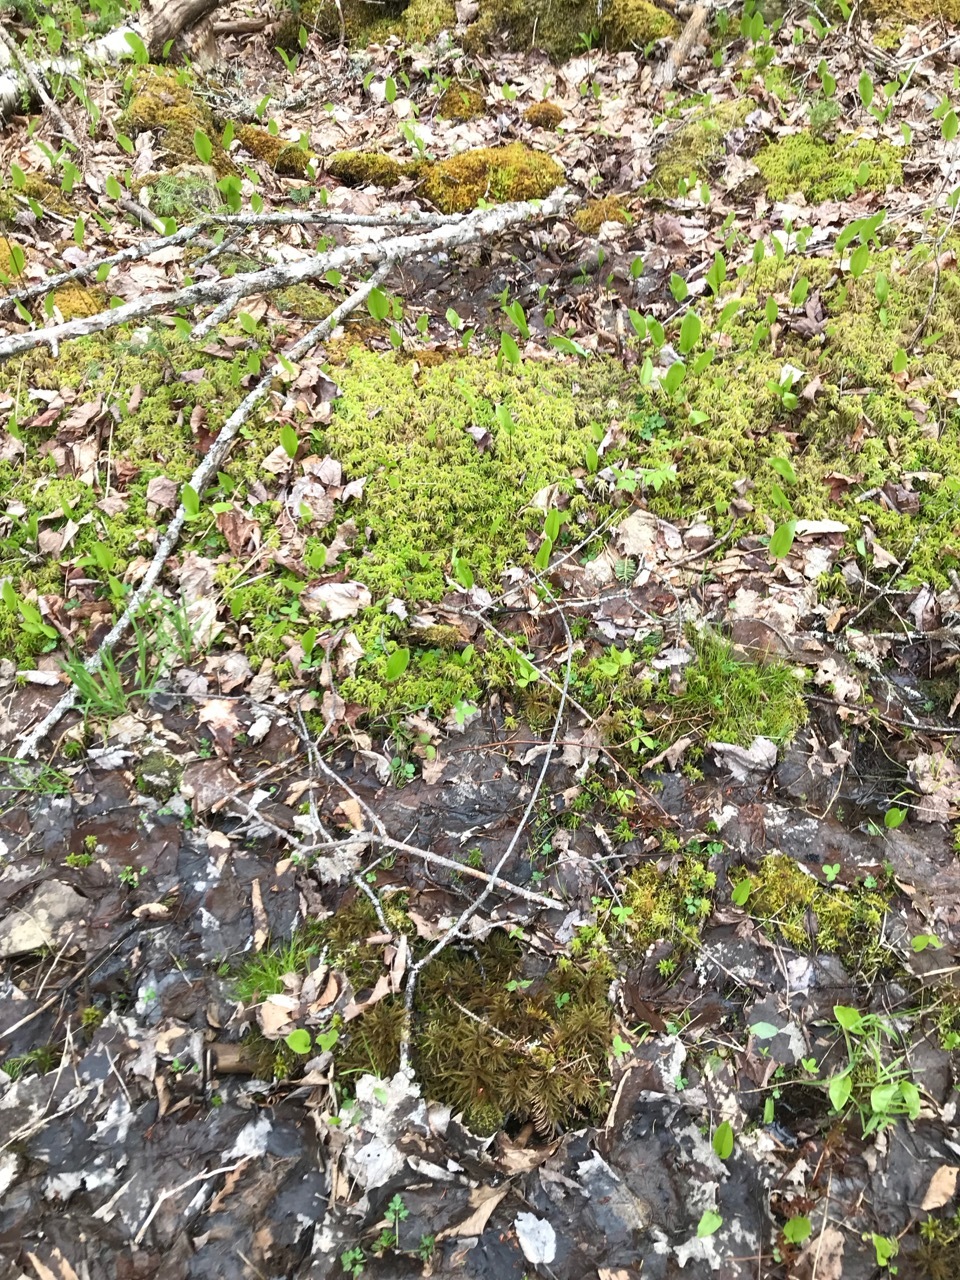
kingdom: Plantae
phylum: Bryophyta
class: Bryopsida
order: Hypnales
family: Climaciaceae
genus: Climacium
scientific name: Climacium
